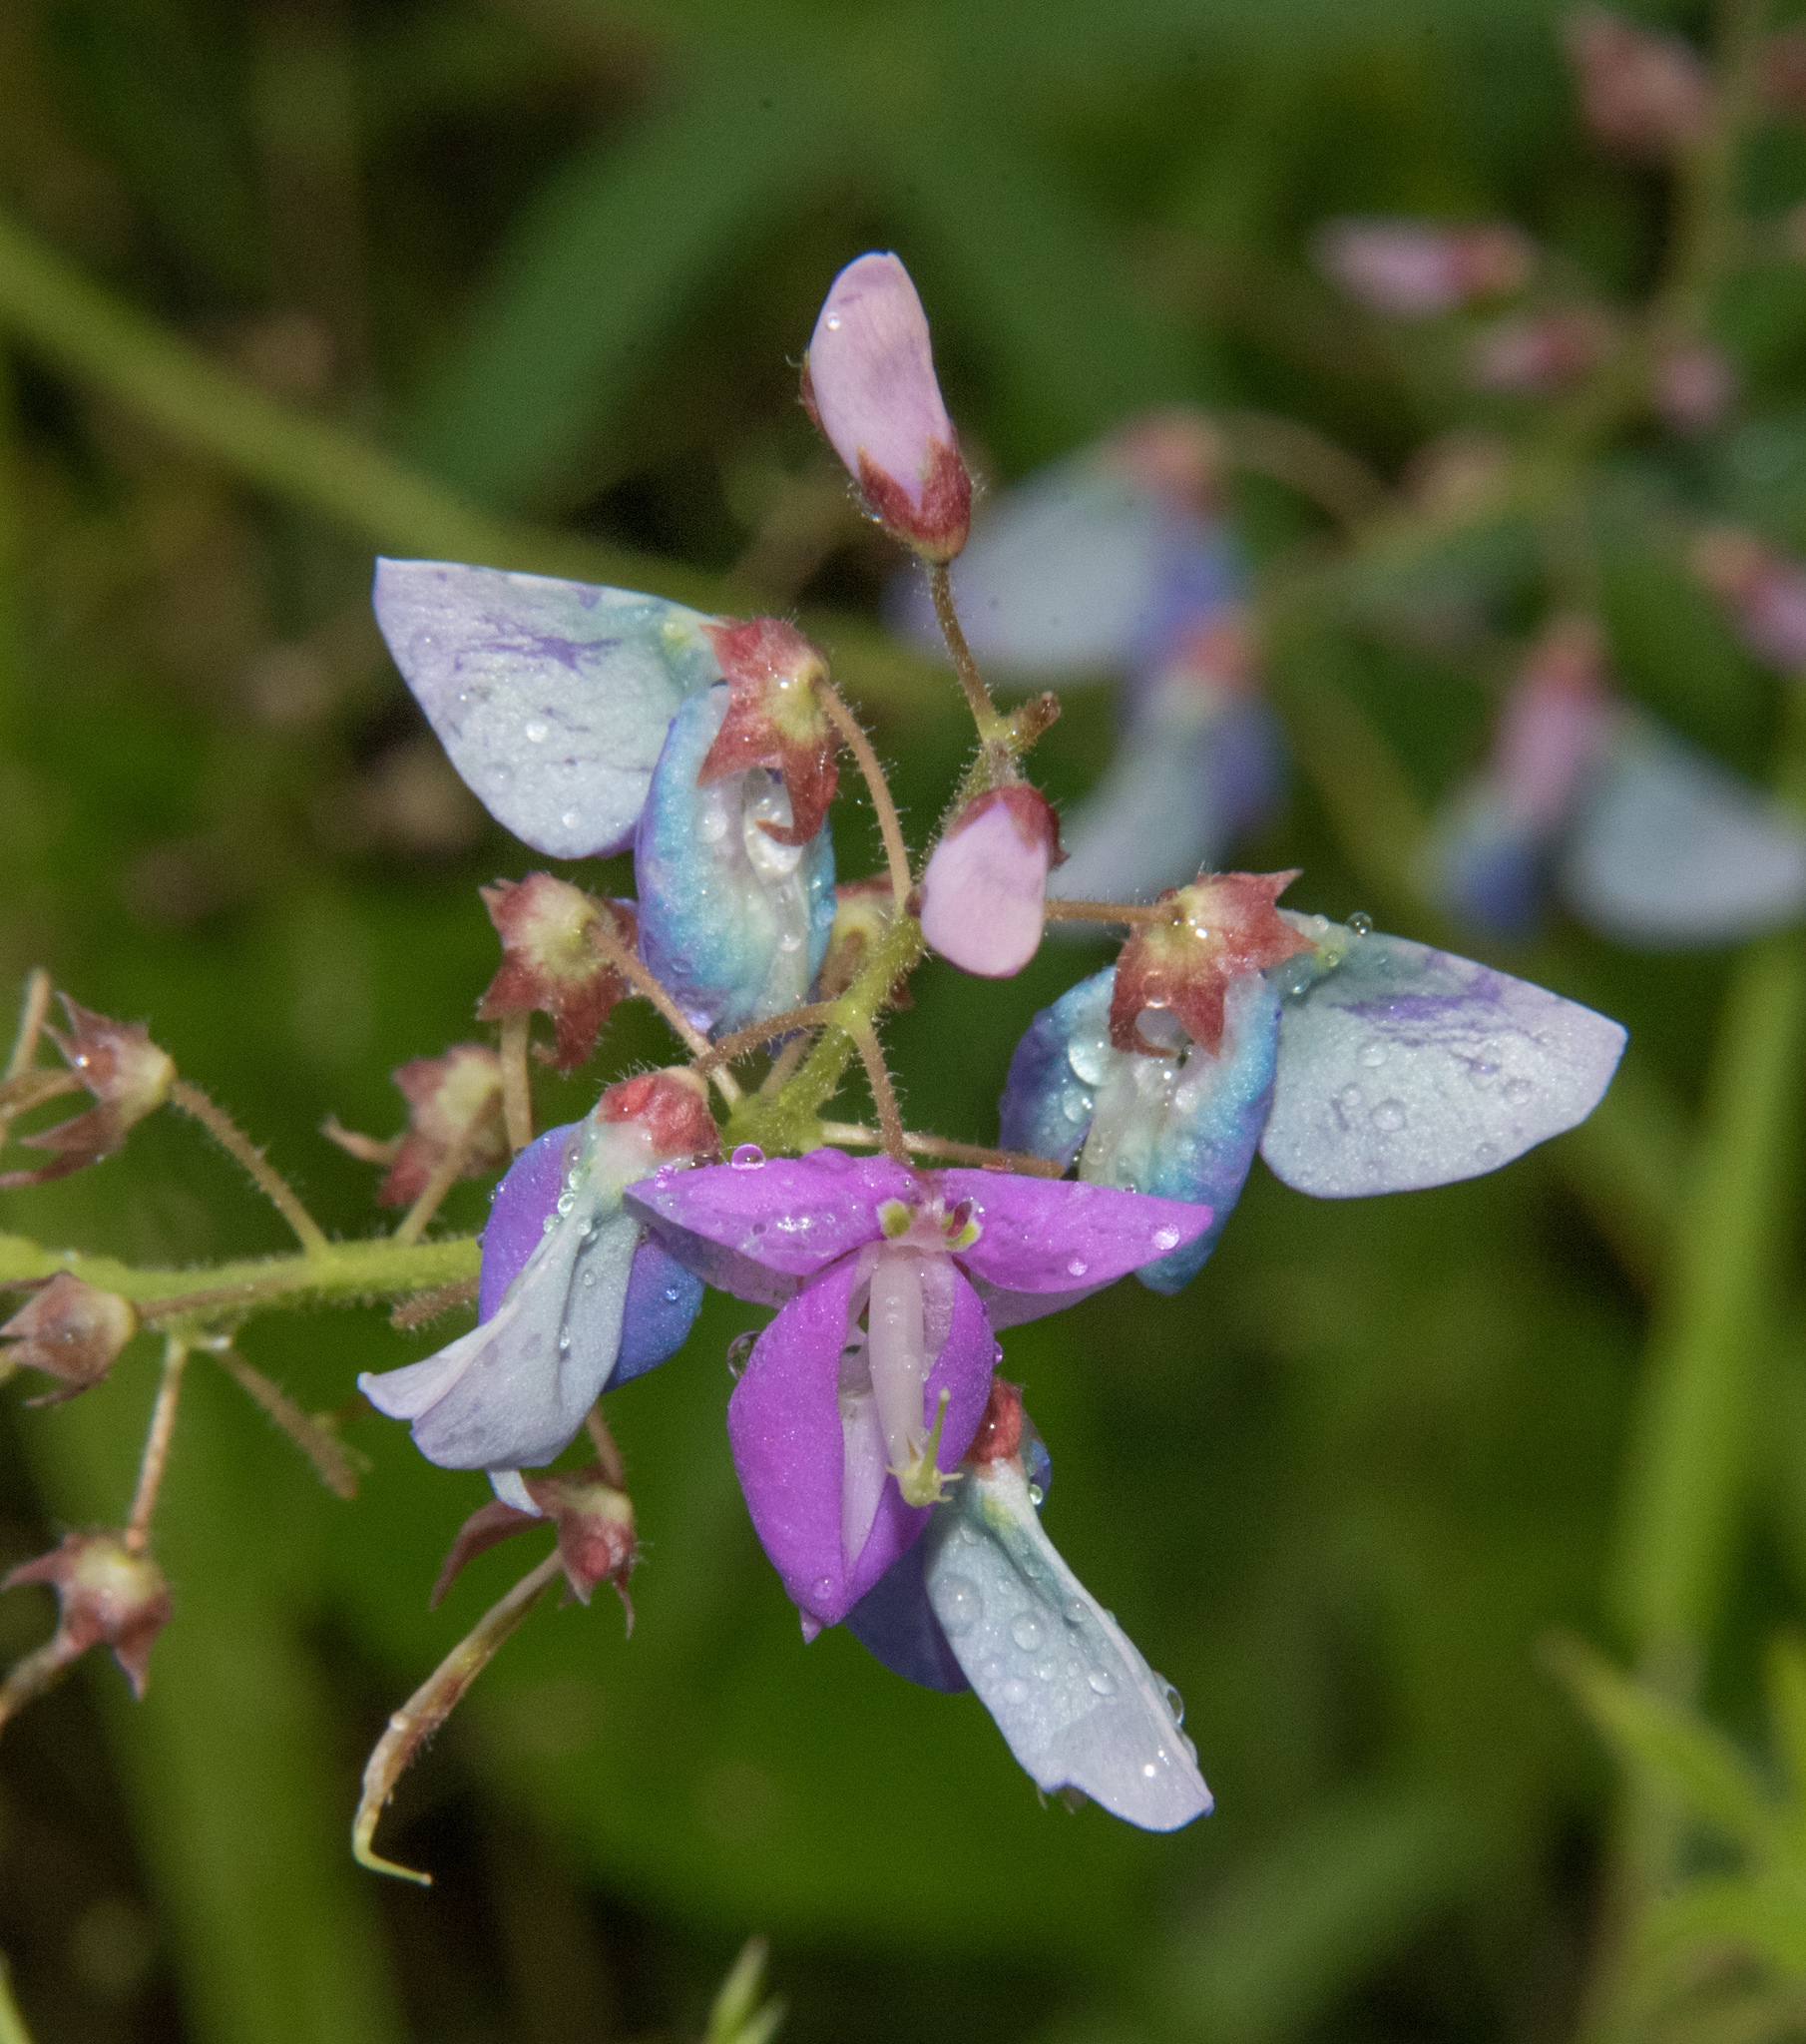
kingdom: Plantae
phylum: Tracheophyta
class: Magnoliopsida
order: Fabales
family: Fabaceae
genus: Desmodium
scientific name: Desmodium batocaulon
